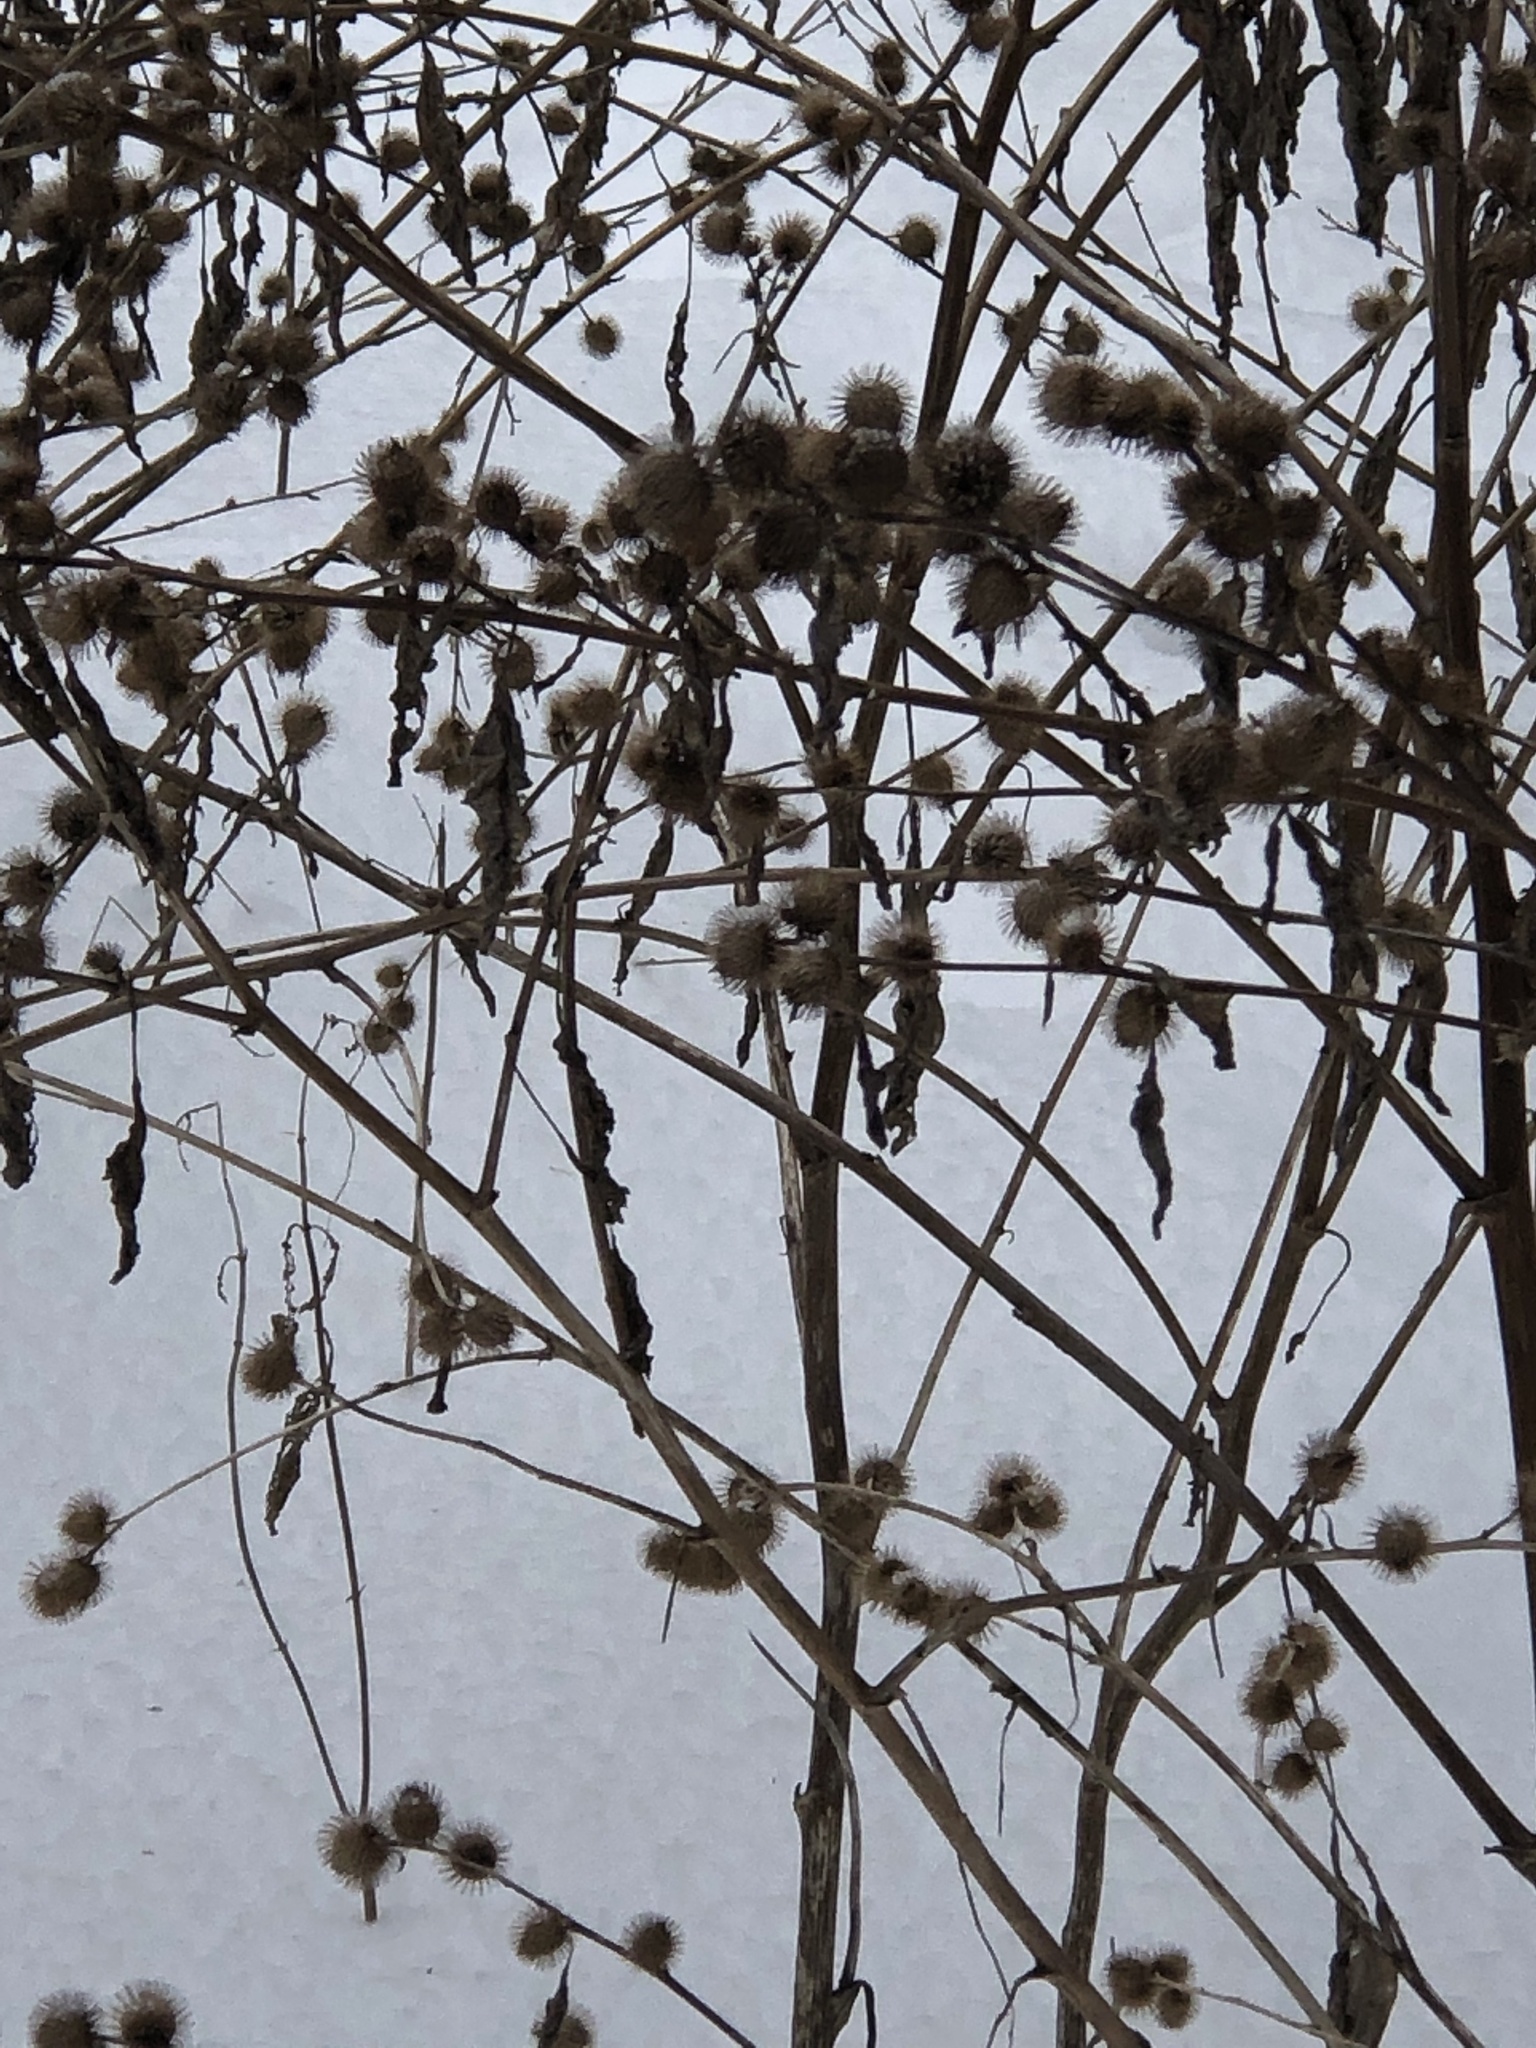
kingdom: Plantae
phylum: Tracheophyta
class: Magnoliopsida
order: Asterales
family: Asteraceae
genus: Arctium
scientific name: Arctium minus
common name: Lesser burdock
